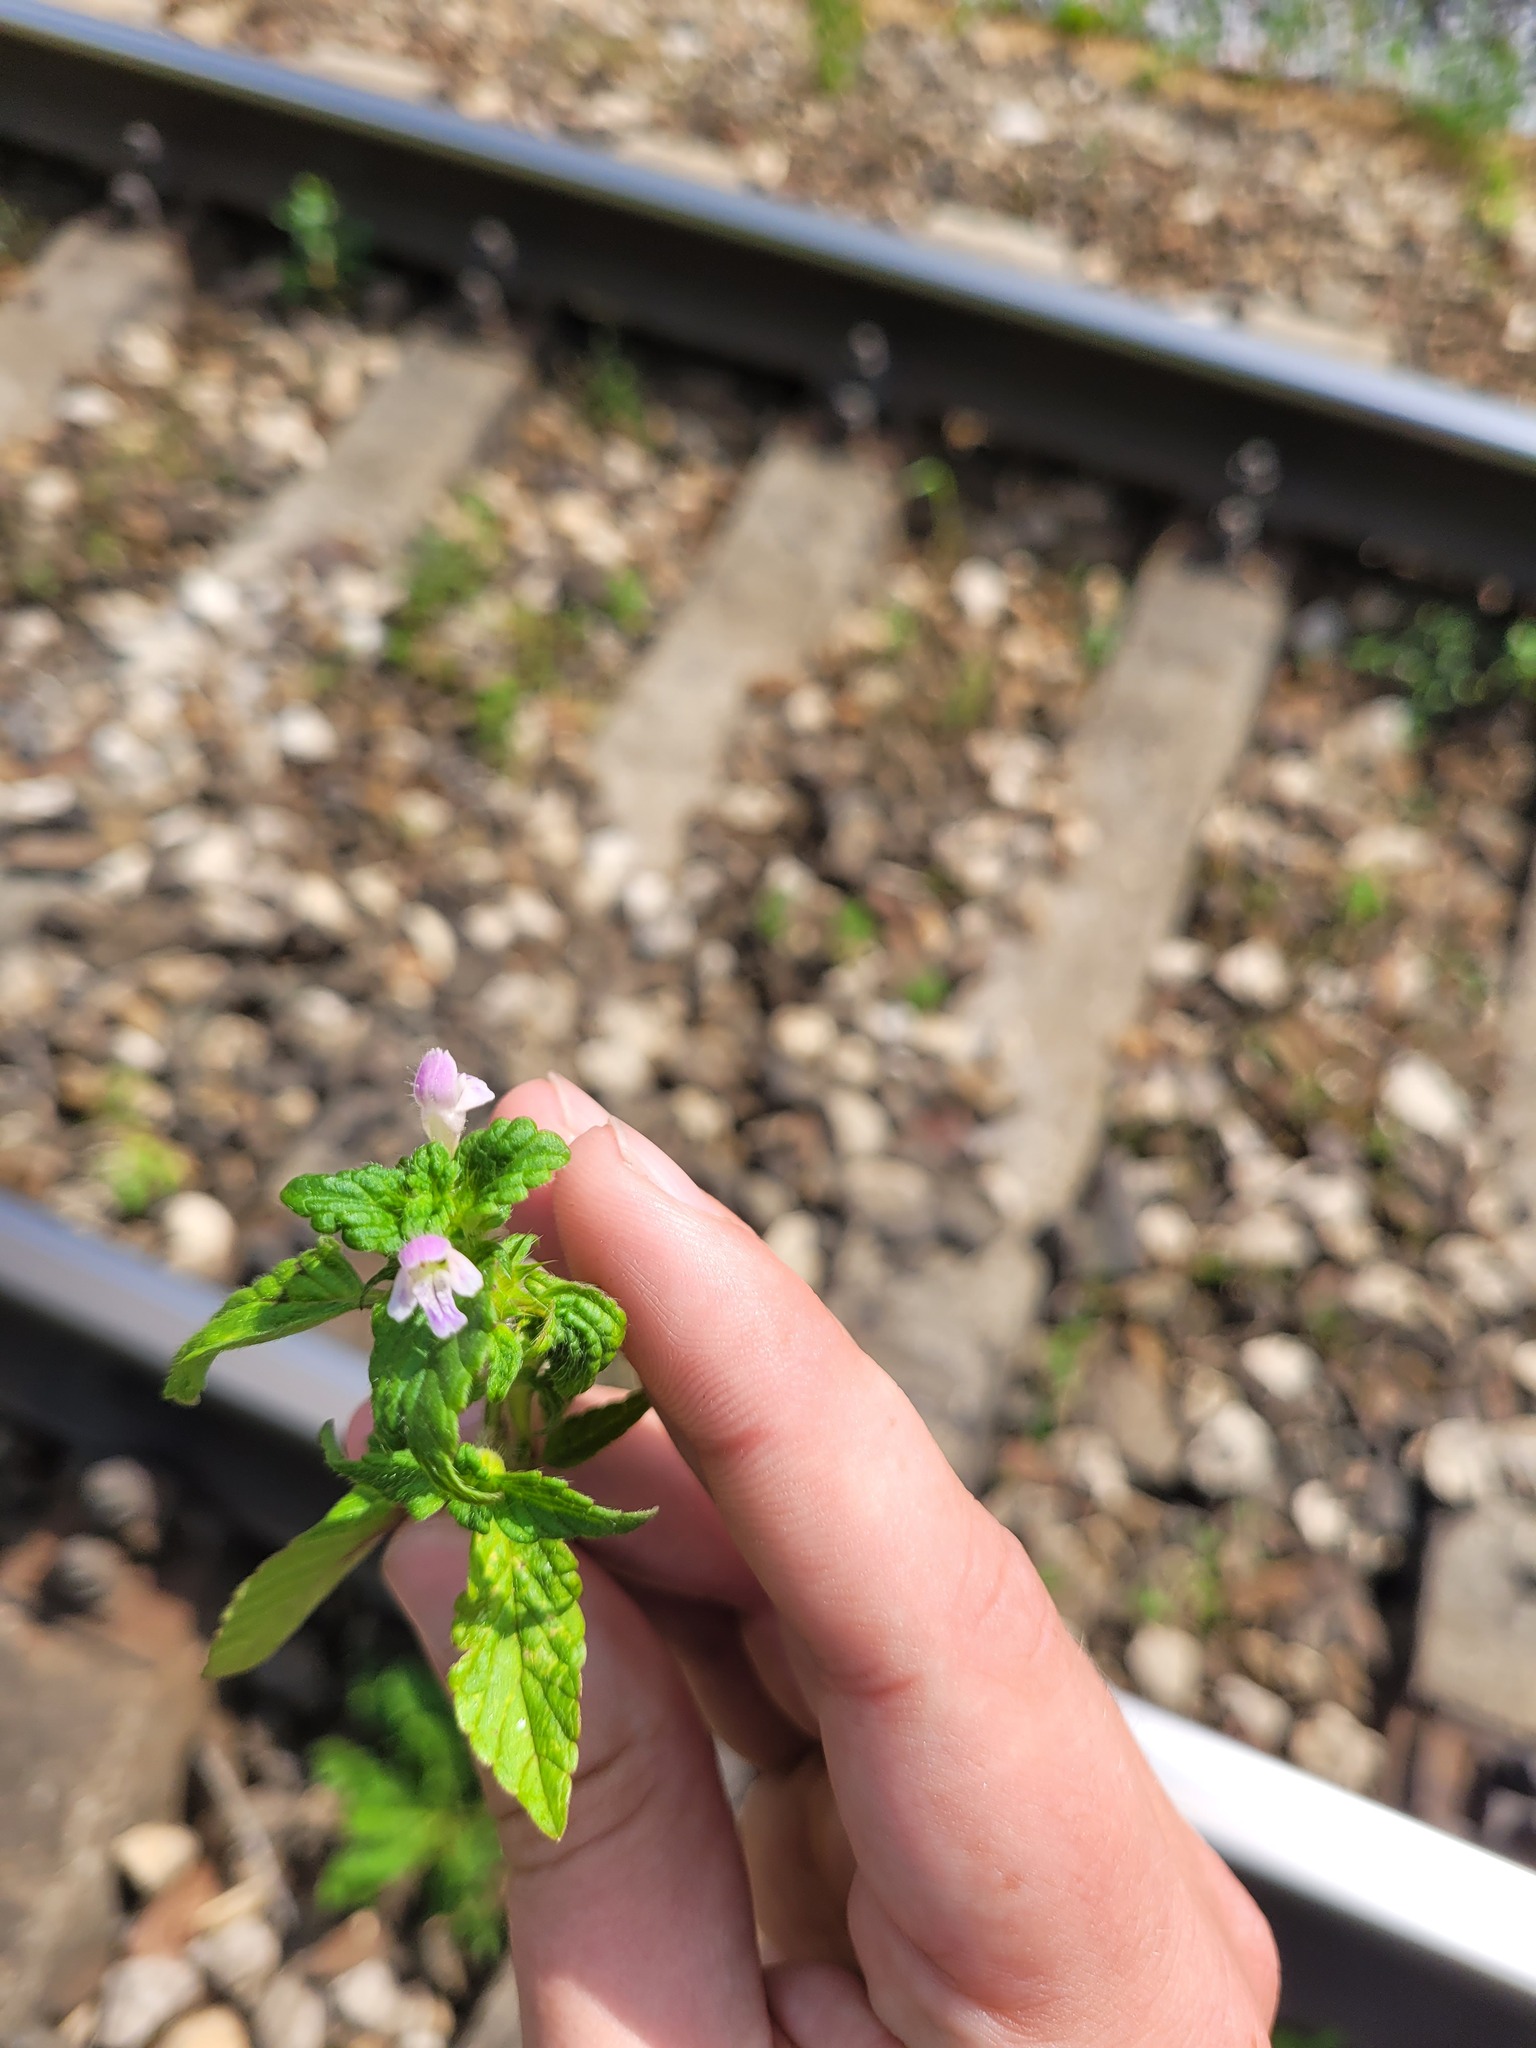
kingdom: Plantae
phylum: Tracheophyta
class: Magnoliopsida
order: Lamiales
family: Lamiaceae
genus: Galeopsis
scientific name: Galeopsis bifida
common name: Bifid hemp-nettle
